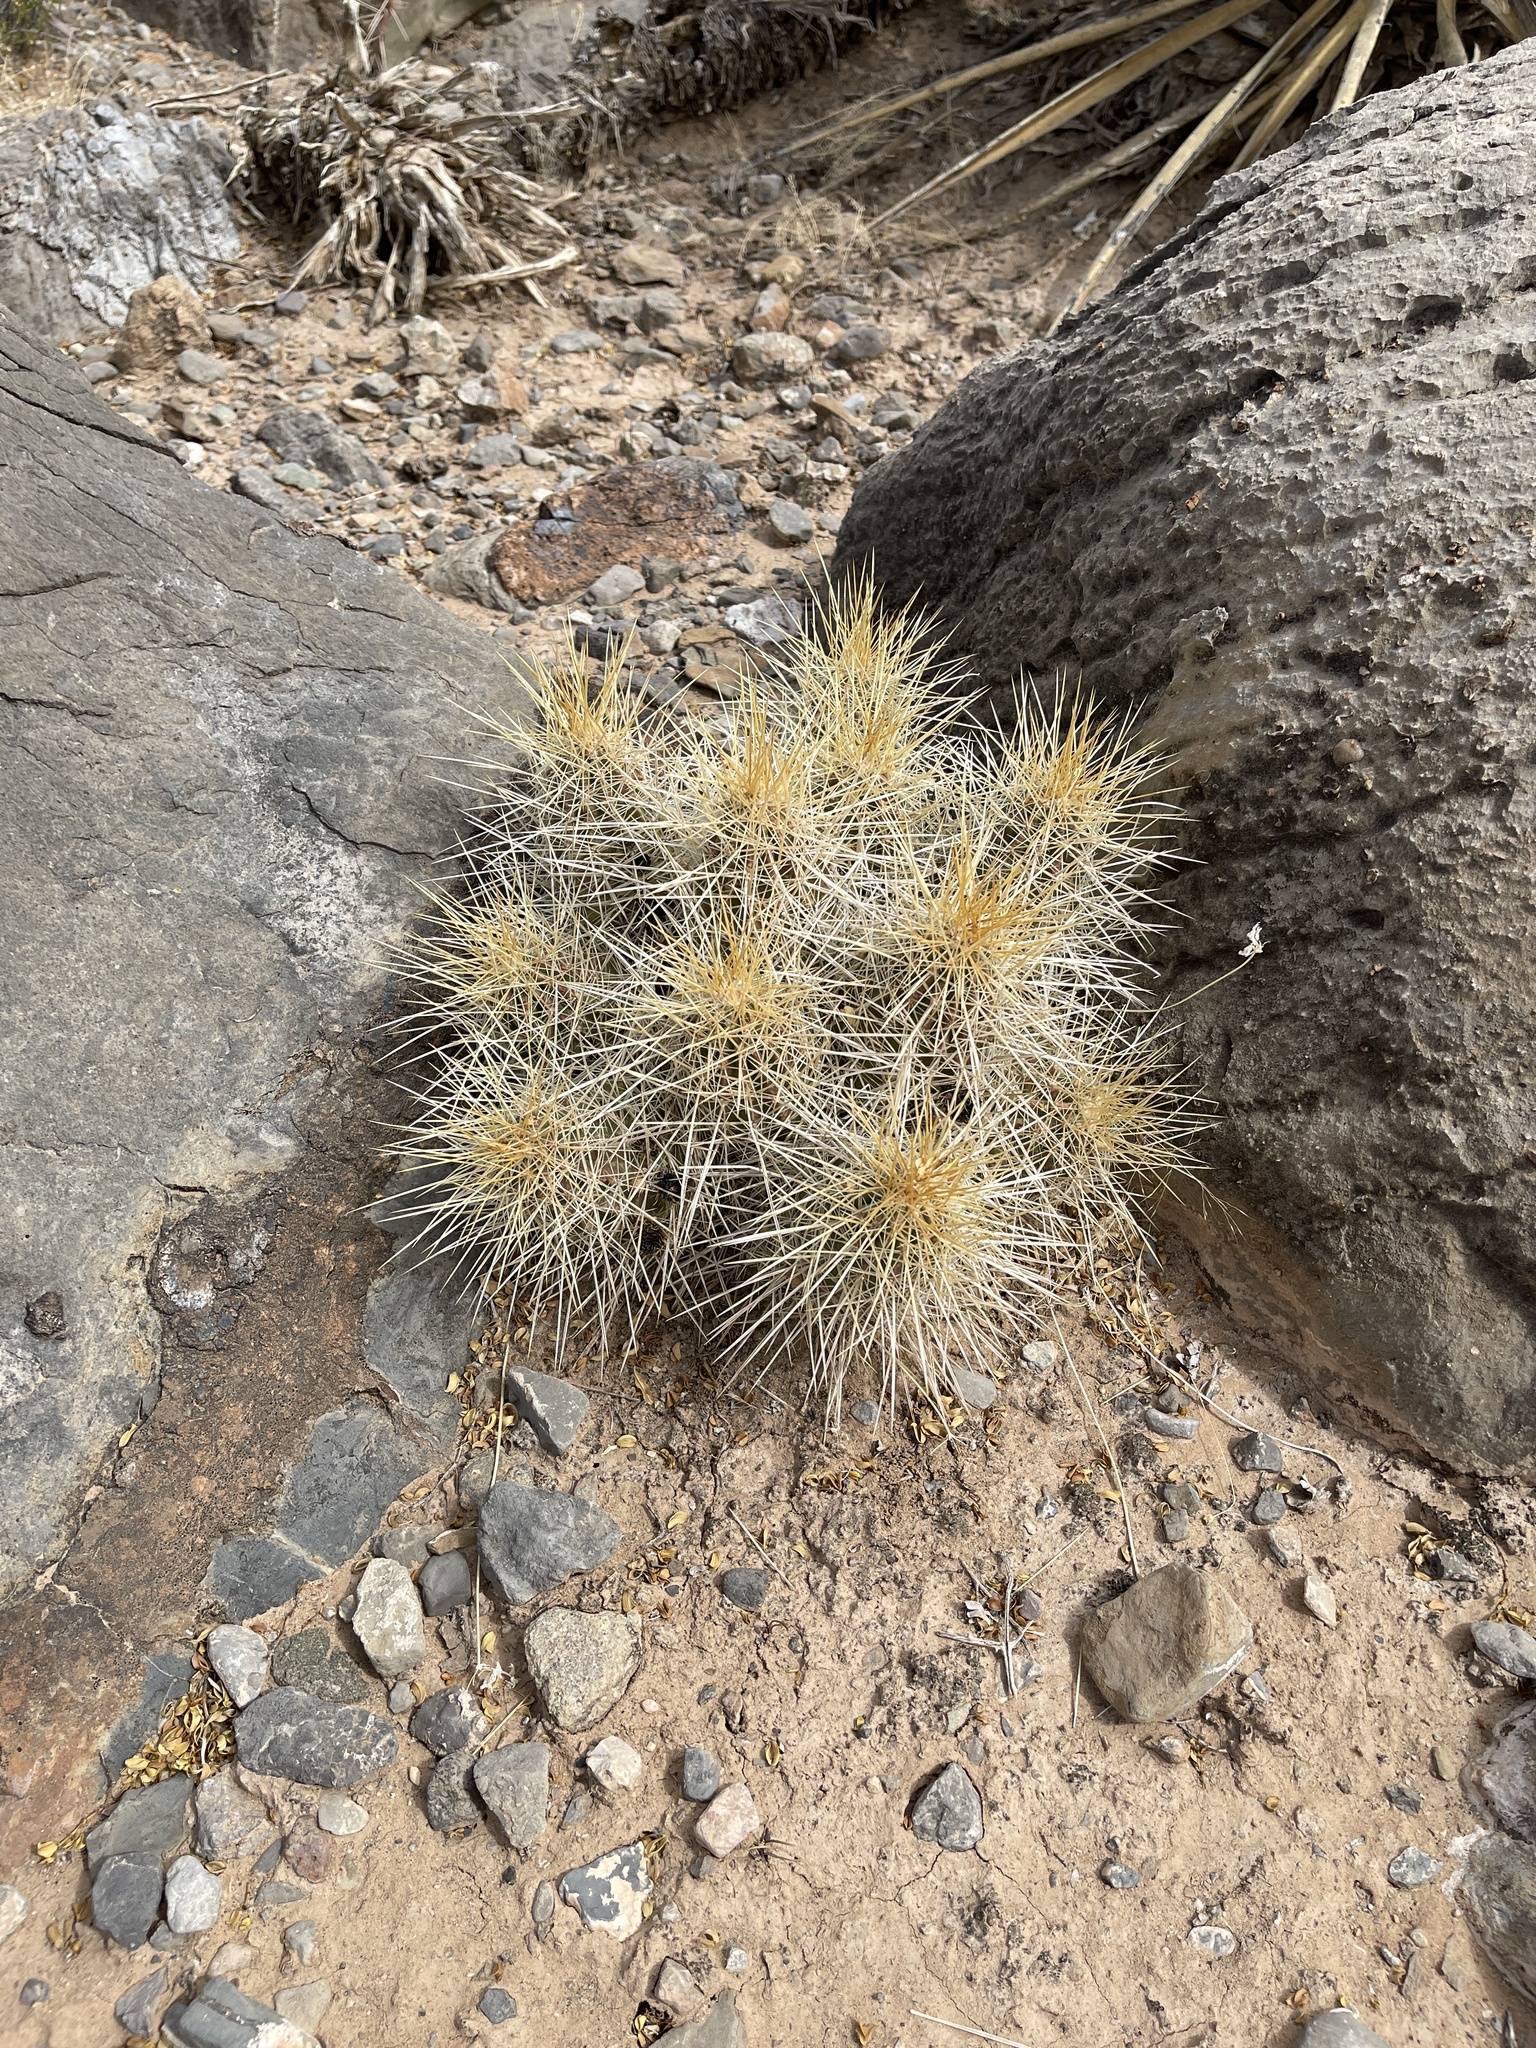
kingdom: Plantae
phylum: Tracheophyta
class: Magnoliopsida
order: Caryophyllales
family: Cactaceae
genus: Echinocereus
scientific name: Echinocereus stramineus
